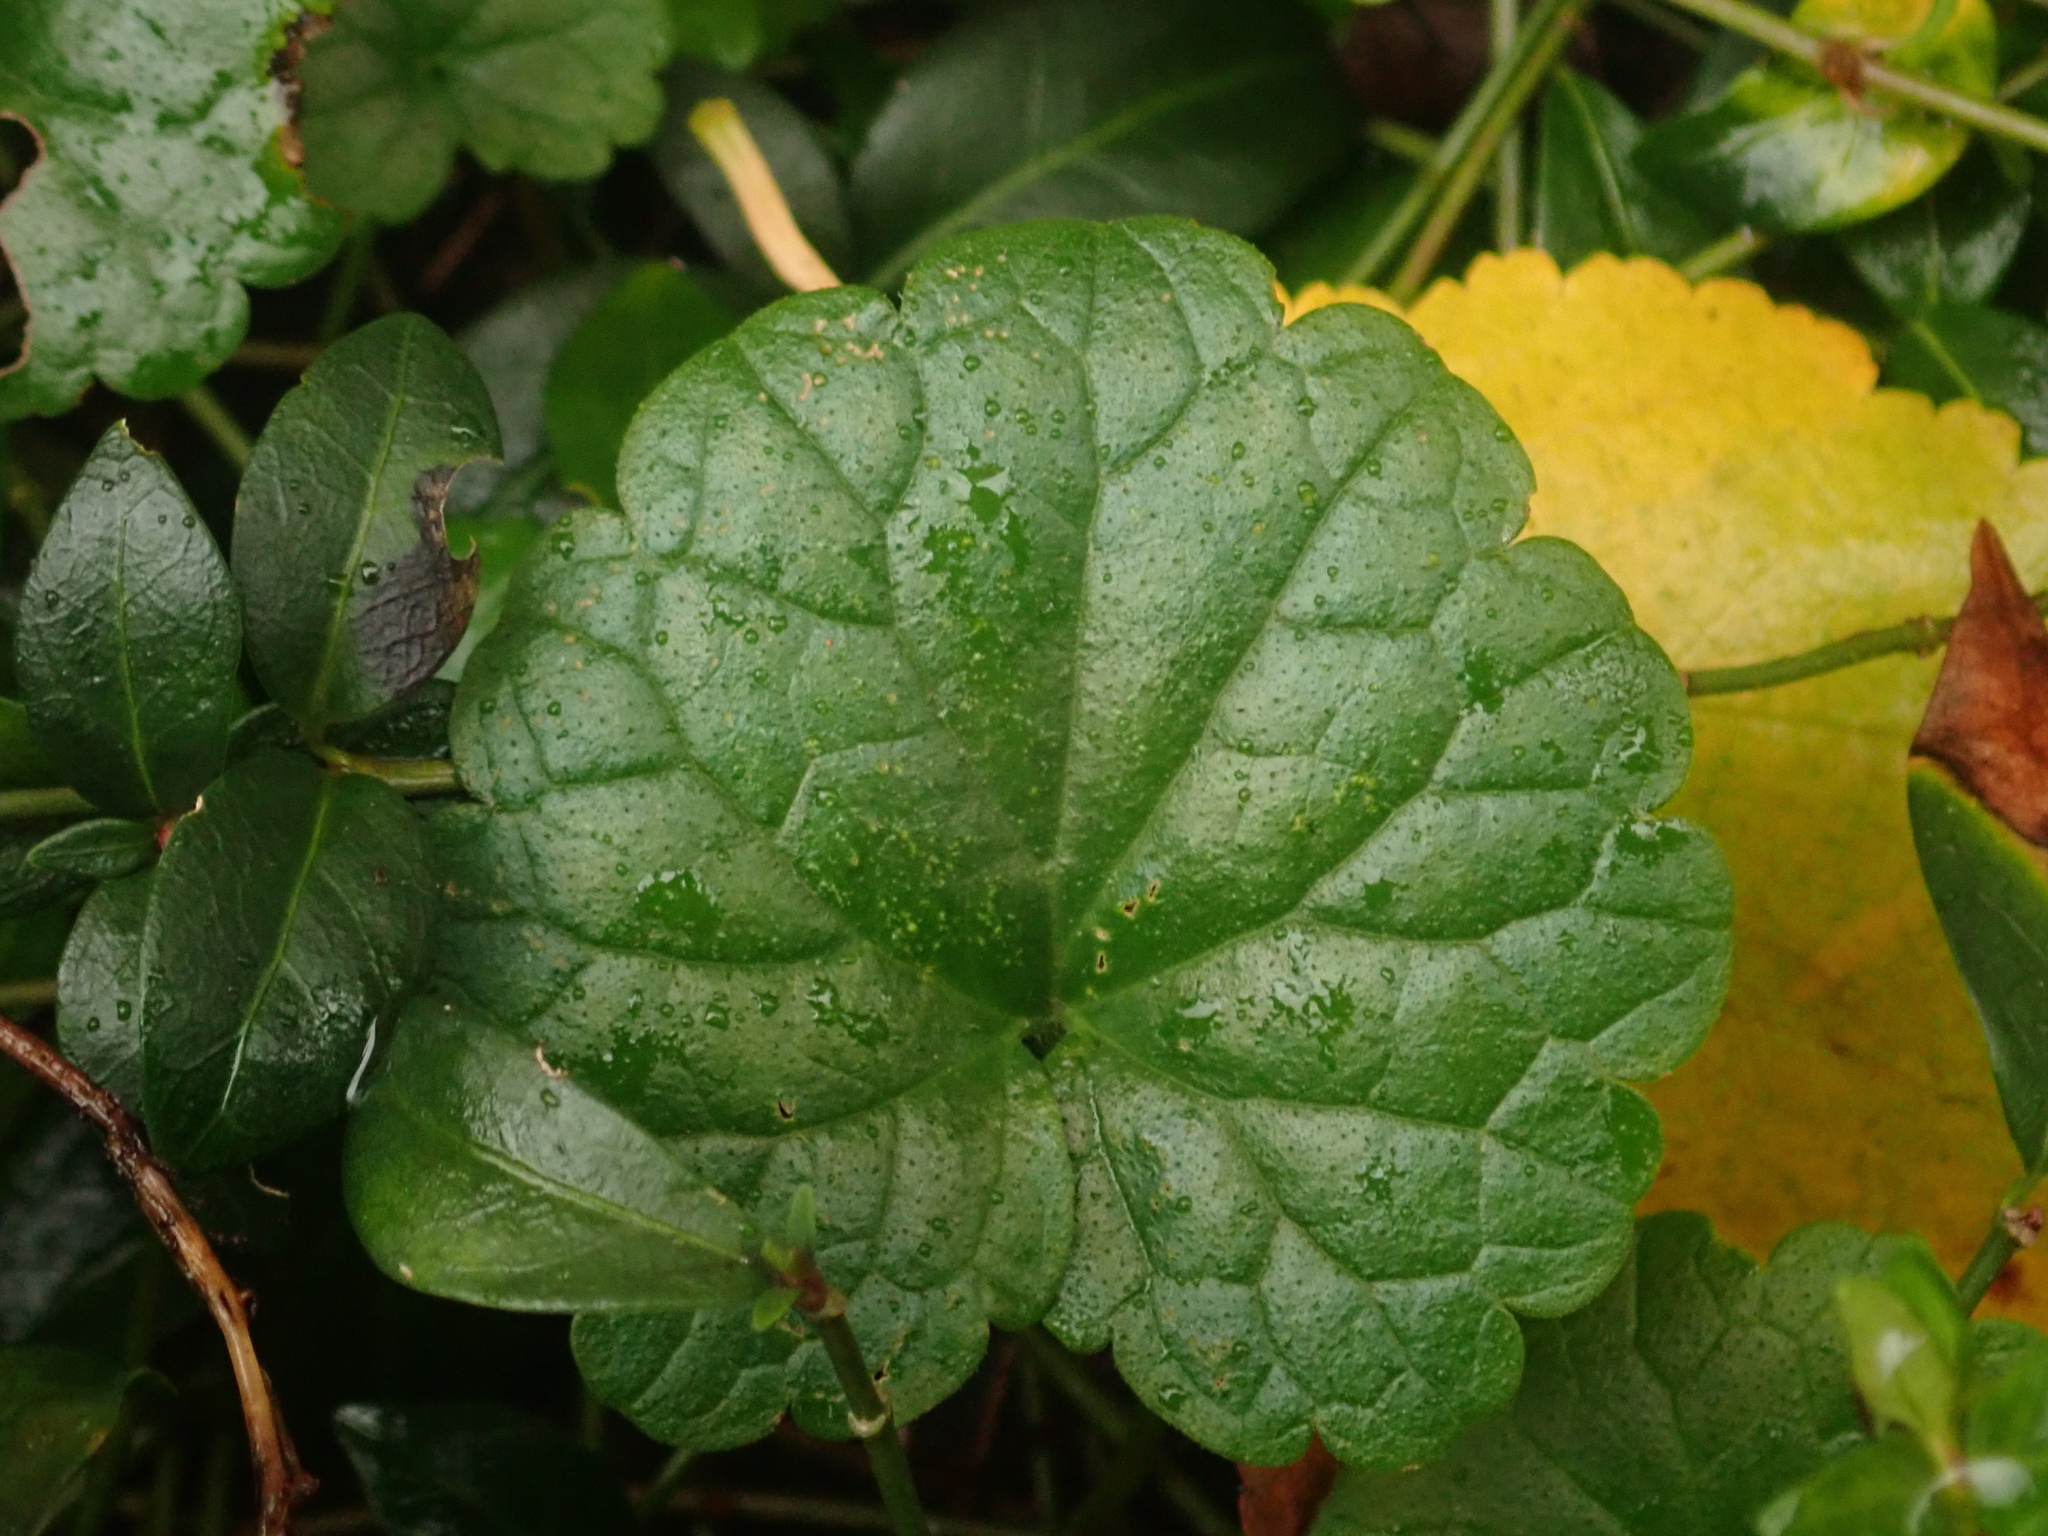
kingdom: Plantae
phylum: Tracheophyta
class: Magnoliopsida
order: Lamiales
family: Lamiaceae
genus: Glechoma
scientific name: Glechoma hederacea
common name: Ground ivy
